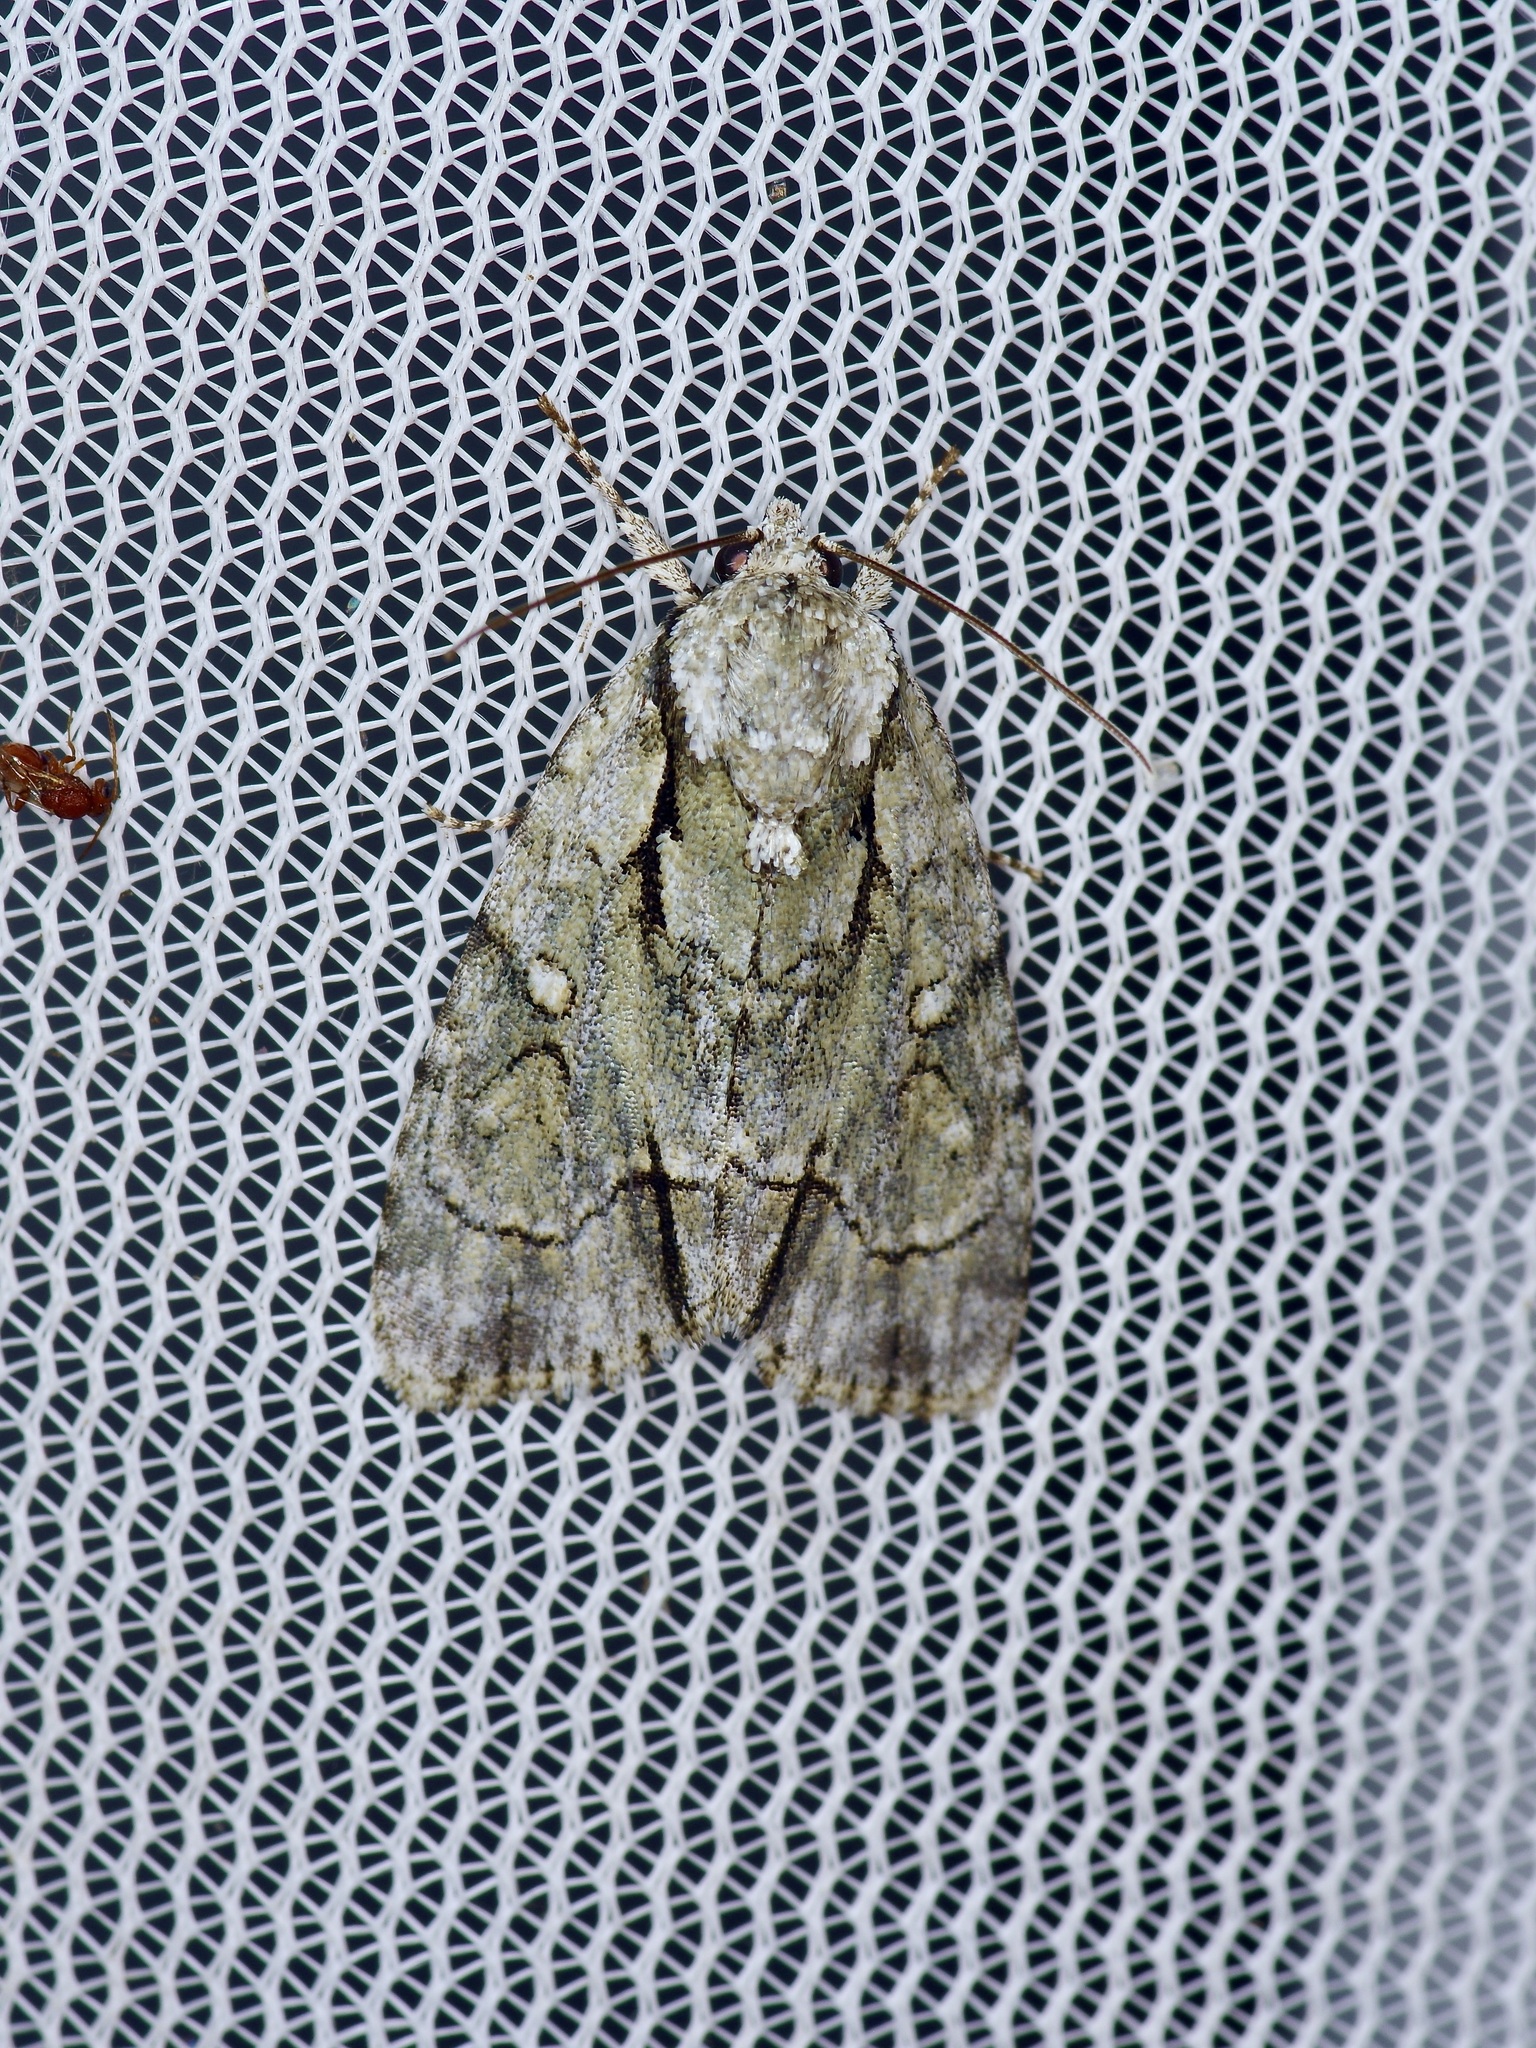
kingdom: Animalia
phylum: Arthropoda
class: Insecta
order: Lepidoptera
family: Noctuidae
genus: Acronicta
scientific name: Acronicta vinnula
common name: Delightful dagger
